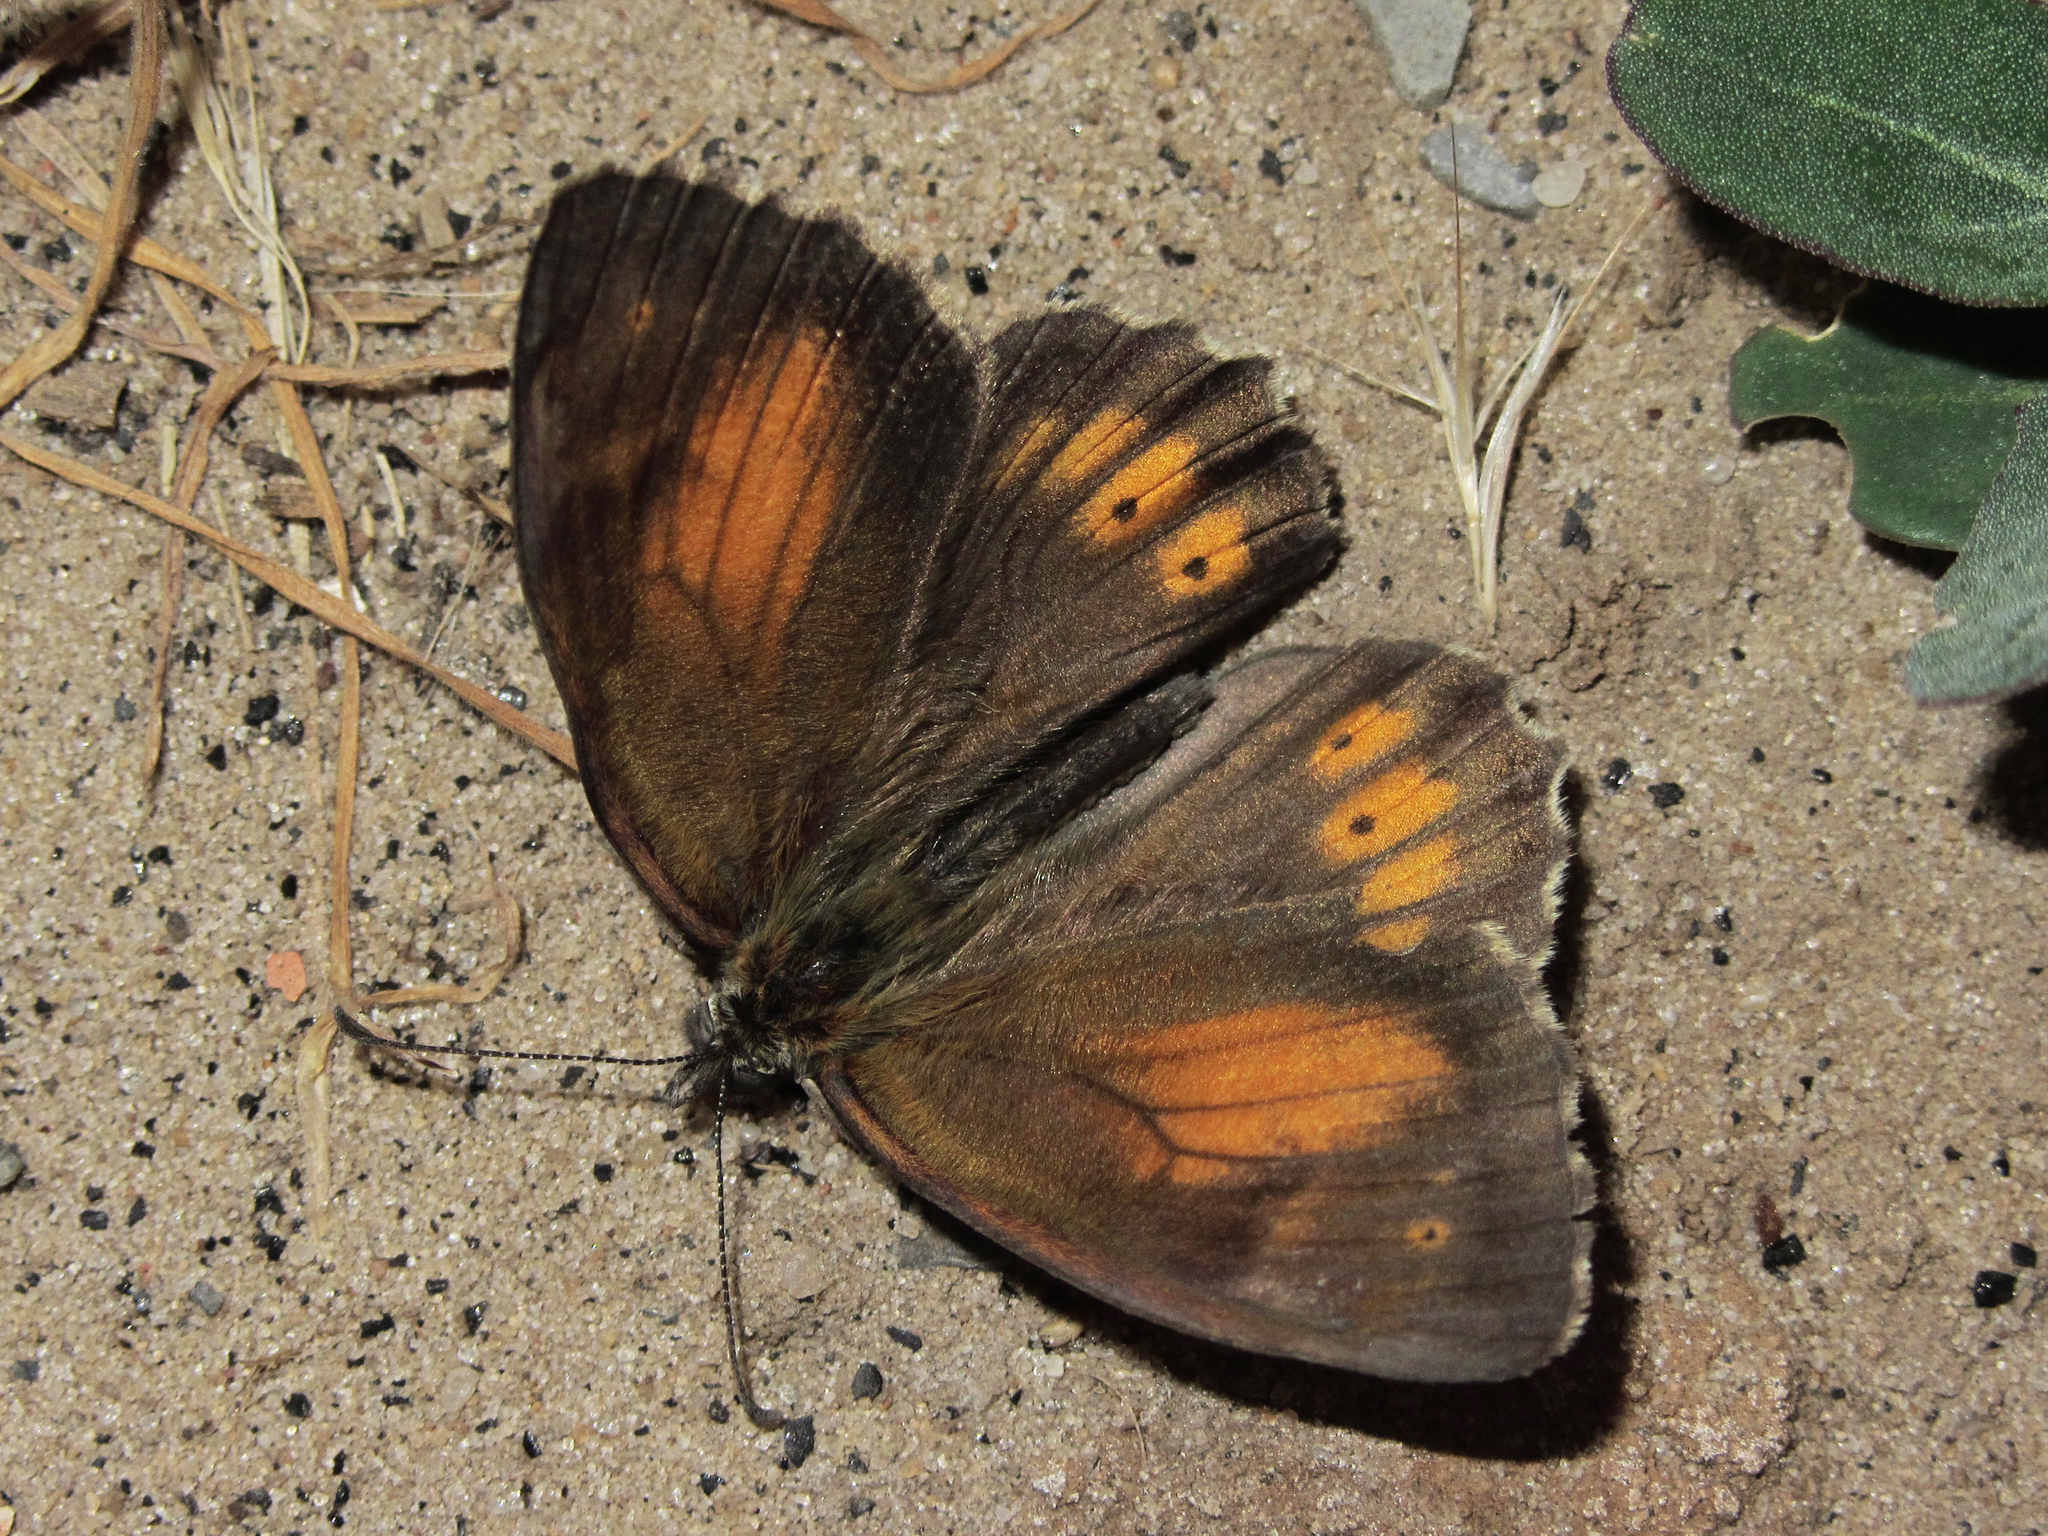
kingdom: Animalia
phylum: Arthropoda
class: Insecta
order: Lepidoptera
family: Nymphalidae
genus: Kirinia
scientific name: Kirinia climene
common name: Lesser lattice brown
